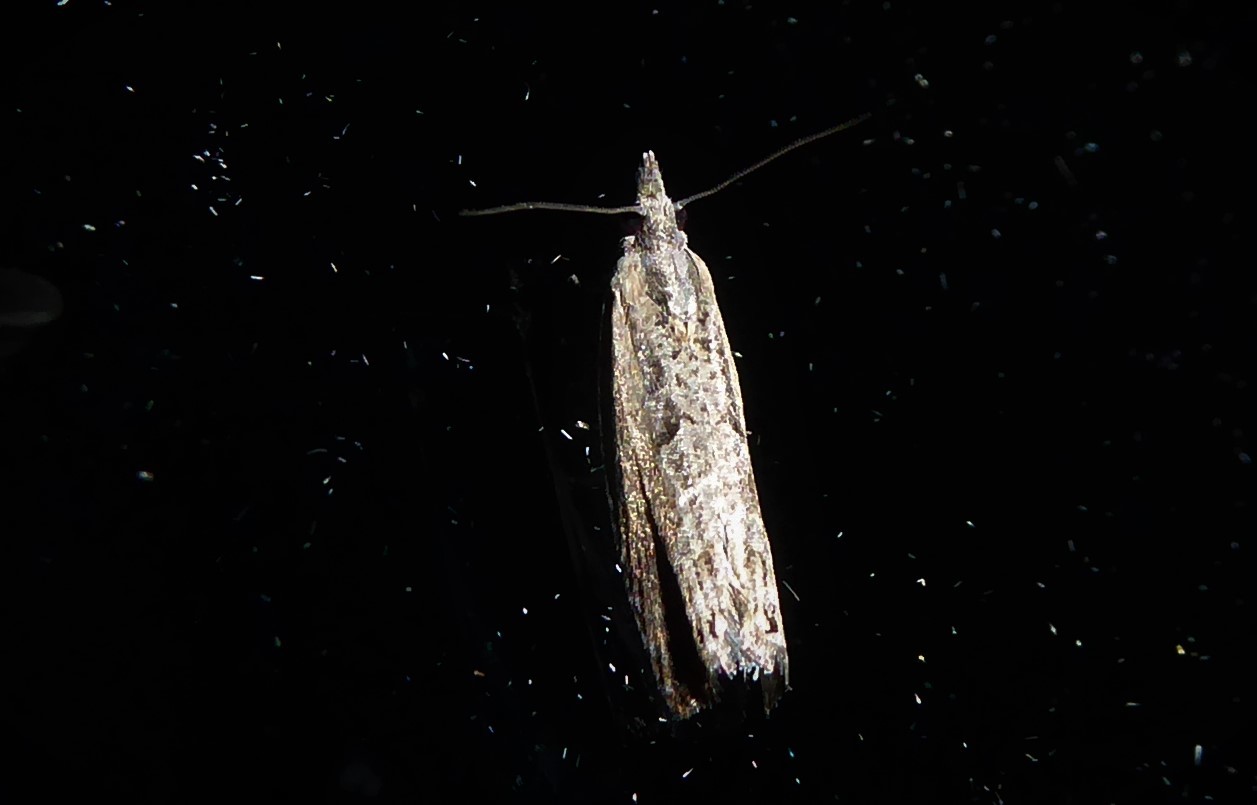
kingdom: Animalia
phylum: Arthropoda
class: Insecta
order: Lepidoptera
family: Tortricidae
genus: Strepsicrates
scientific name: Strepsicrates macropetana
